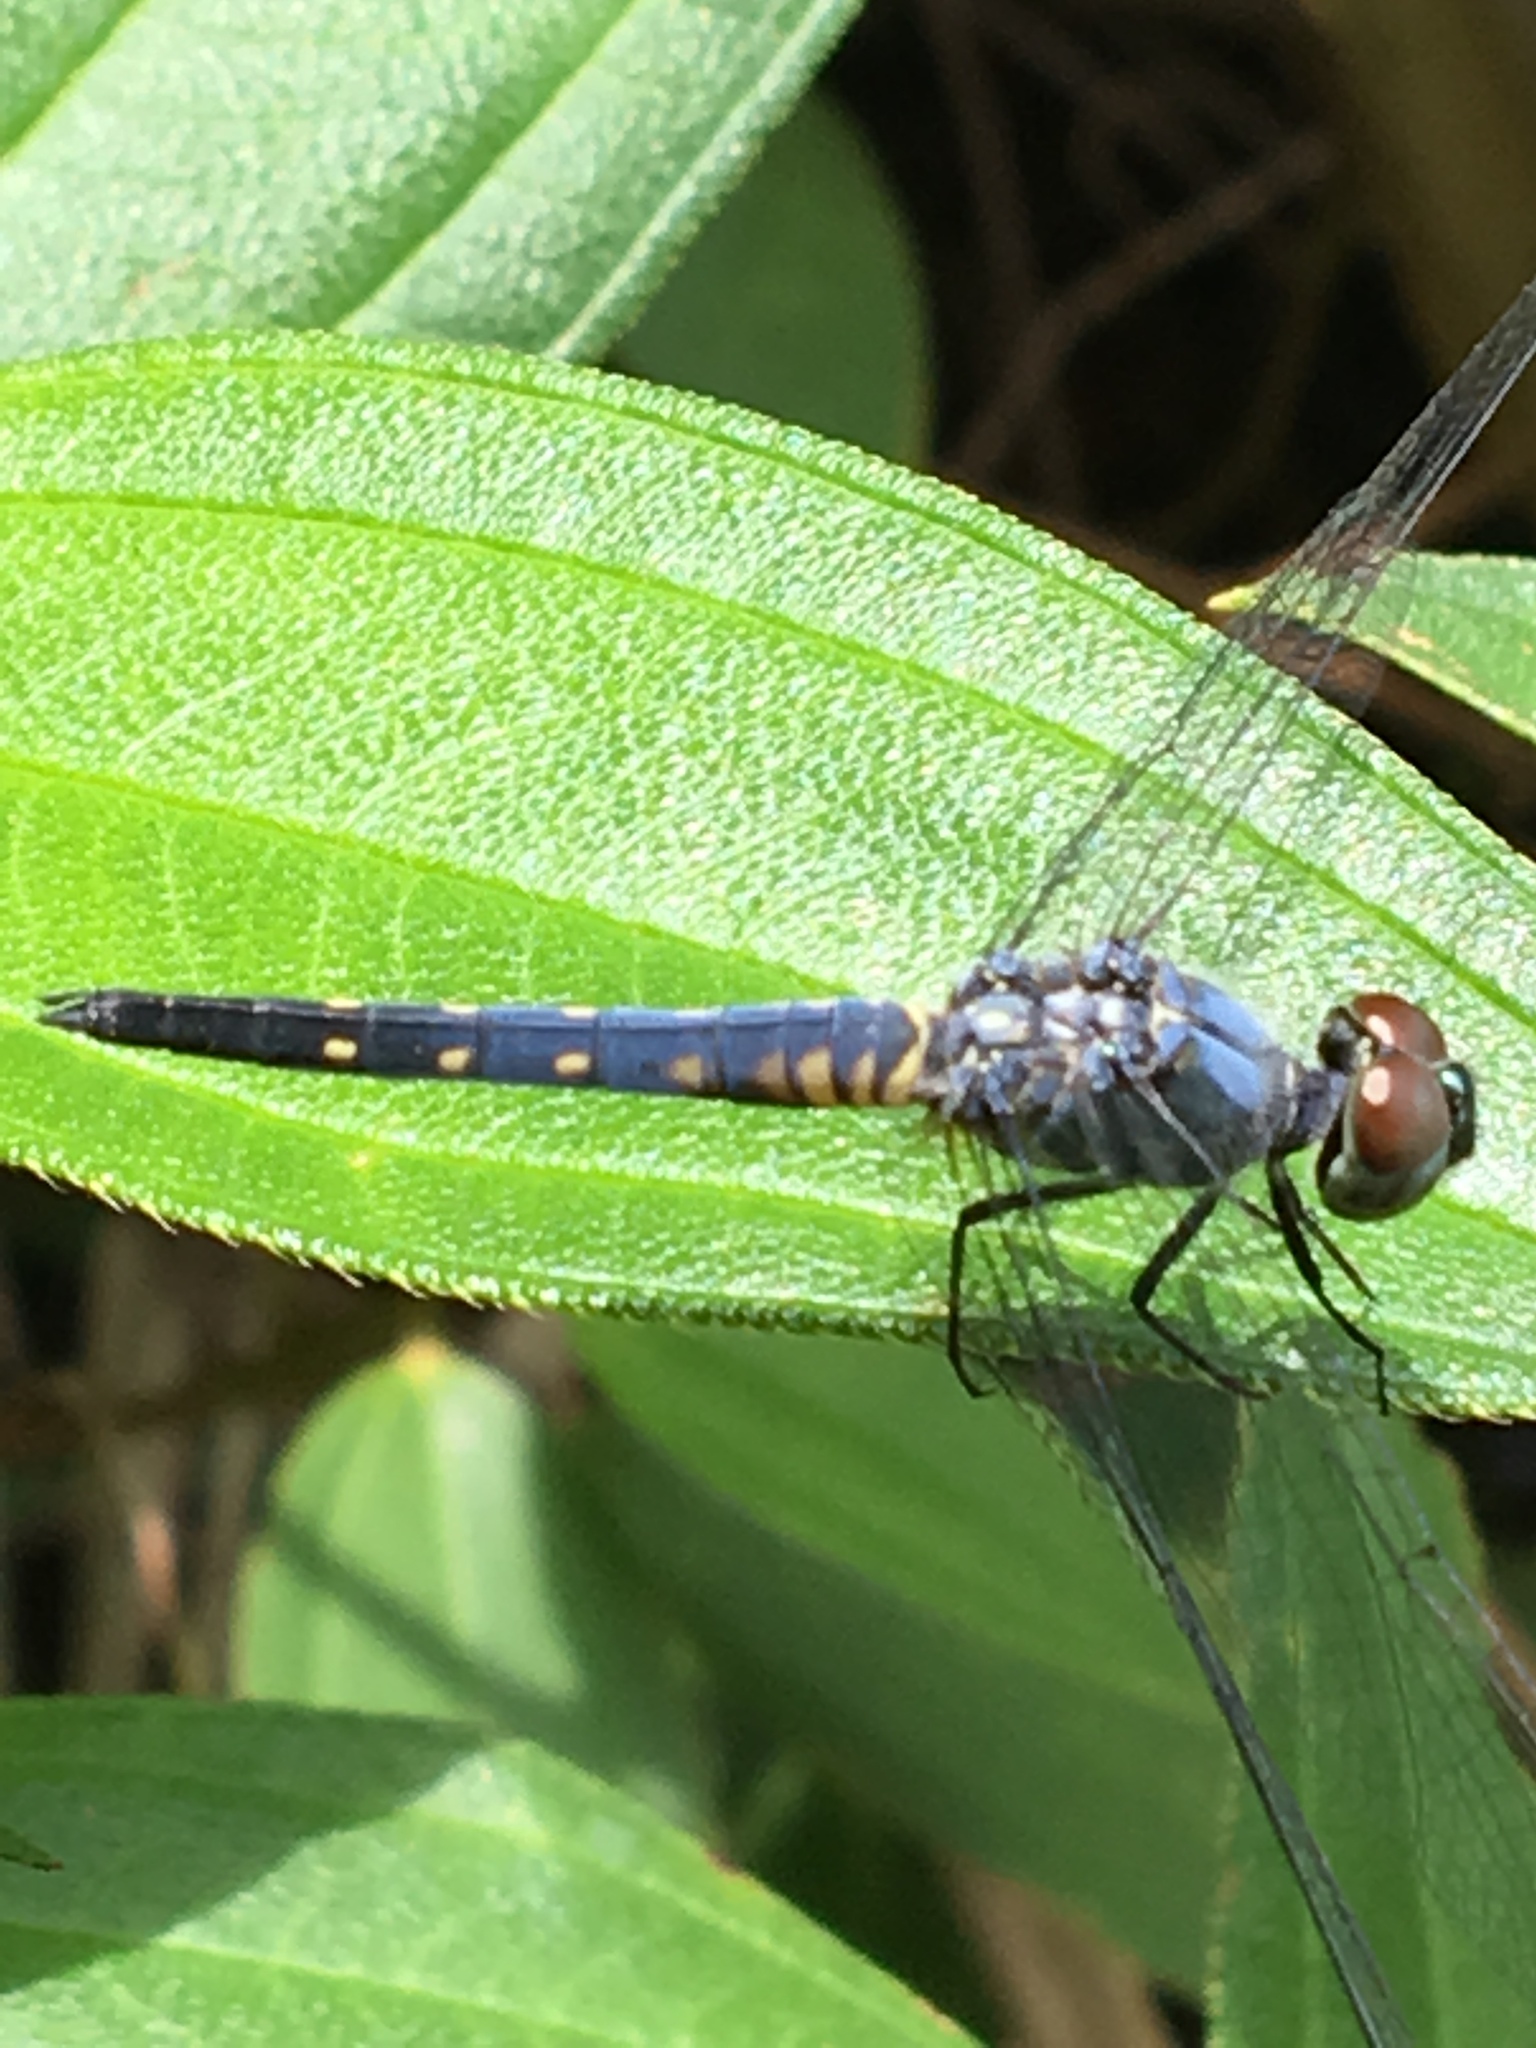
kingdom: Animalia
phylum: Arthropoda
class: Insecta
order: Odonata
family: Libellulidae
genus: Brachydiplax
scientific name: Brachydiplax sobrina
